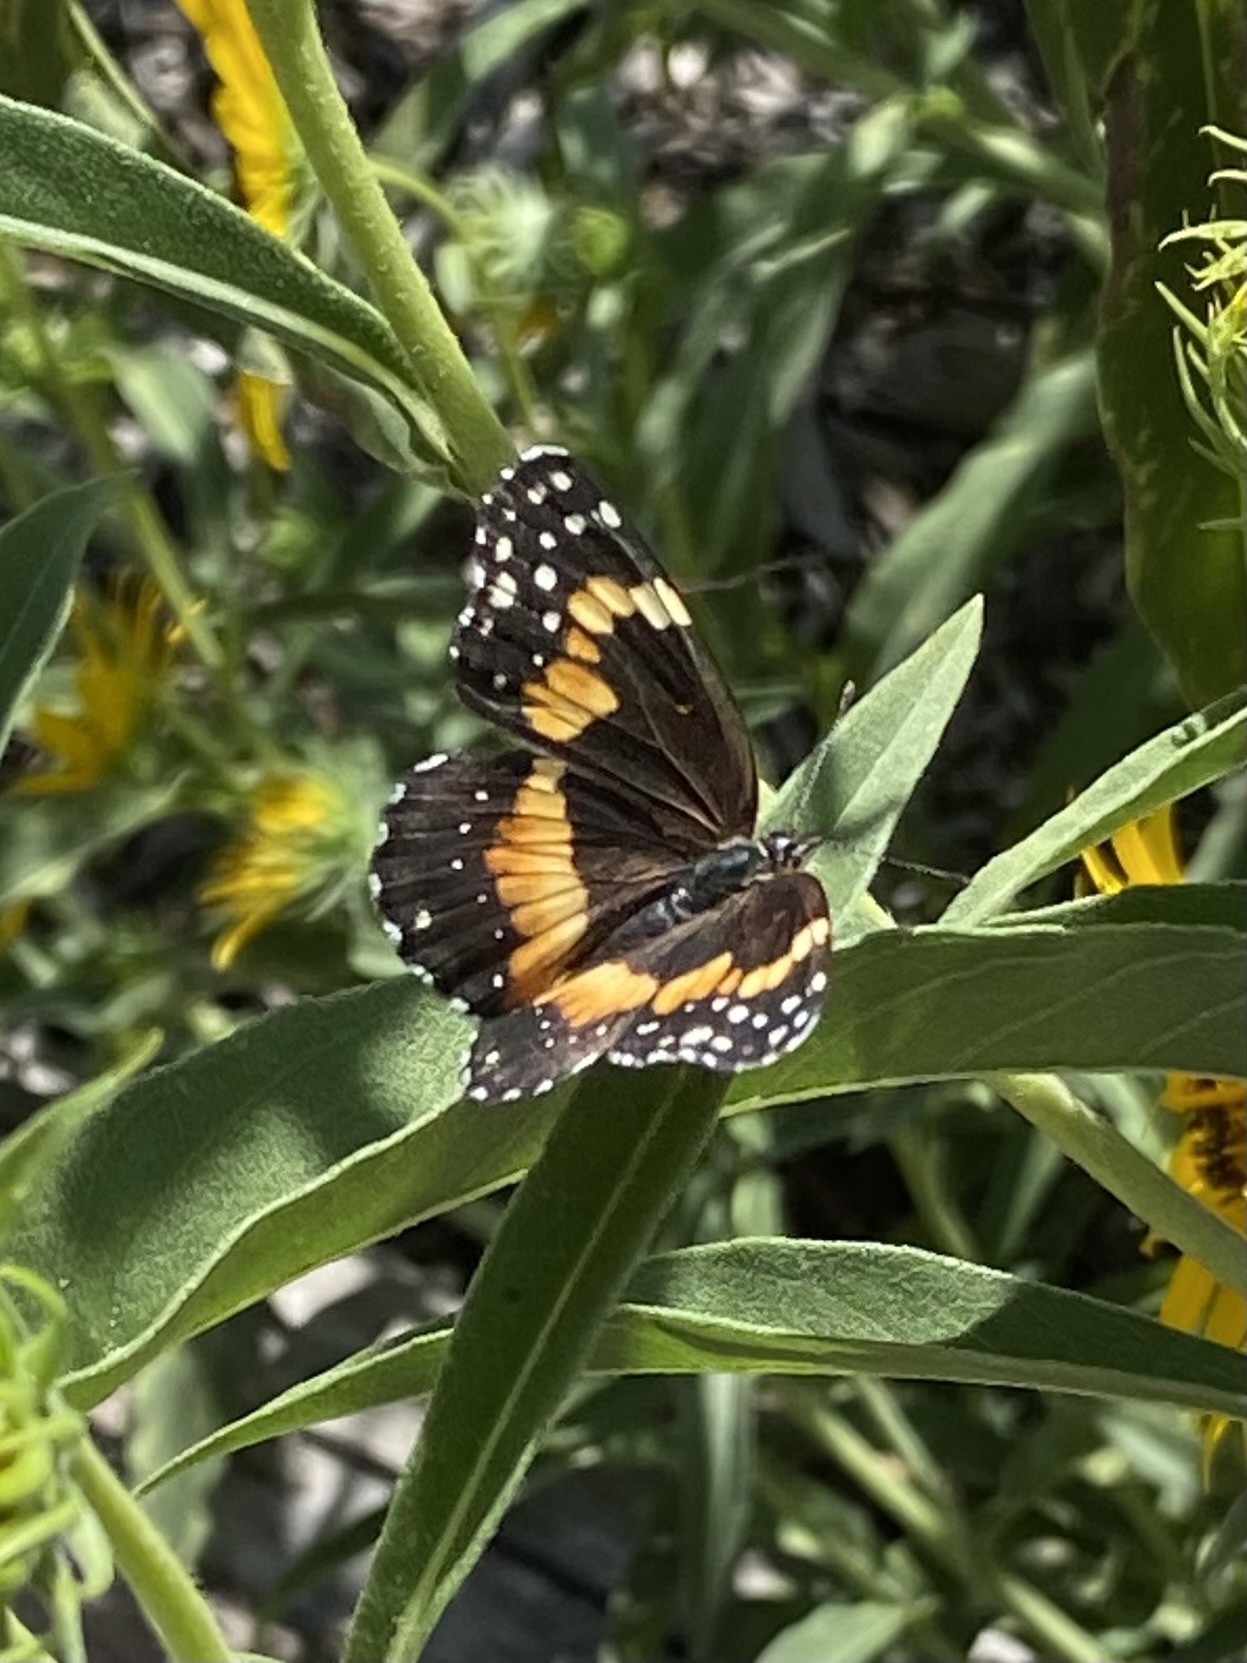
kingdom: Animalia
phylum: Arthropoda
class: Insecta
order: Lepidoptera
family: Nymphalidae
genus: Chlosyne
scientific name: Chlosyne lacinia
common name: Bordered patch
